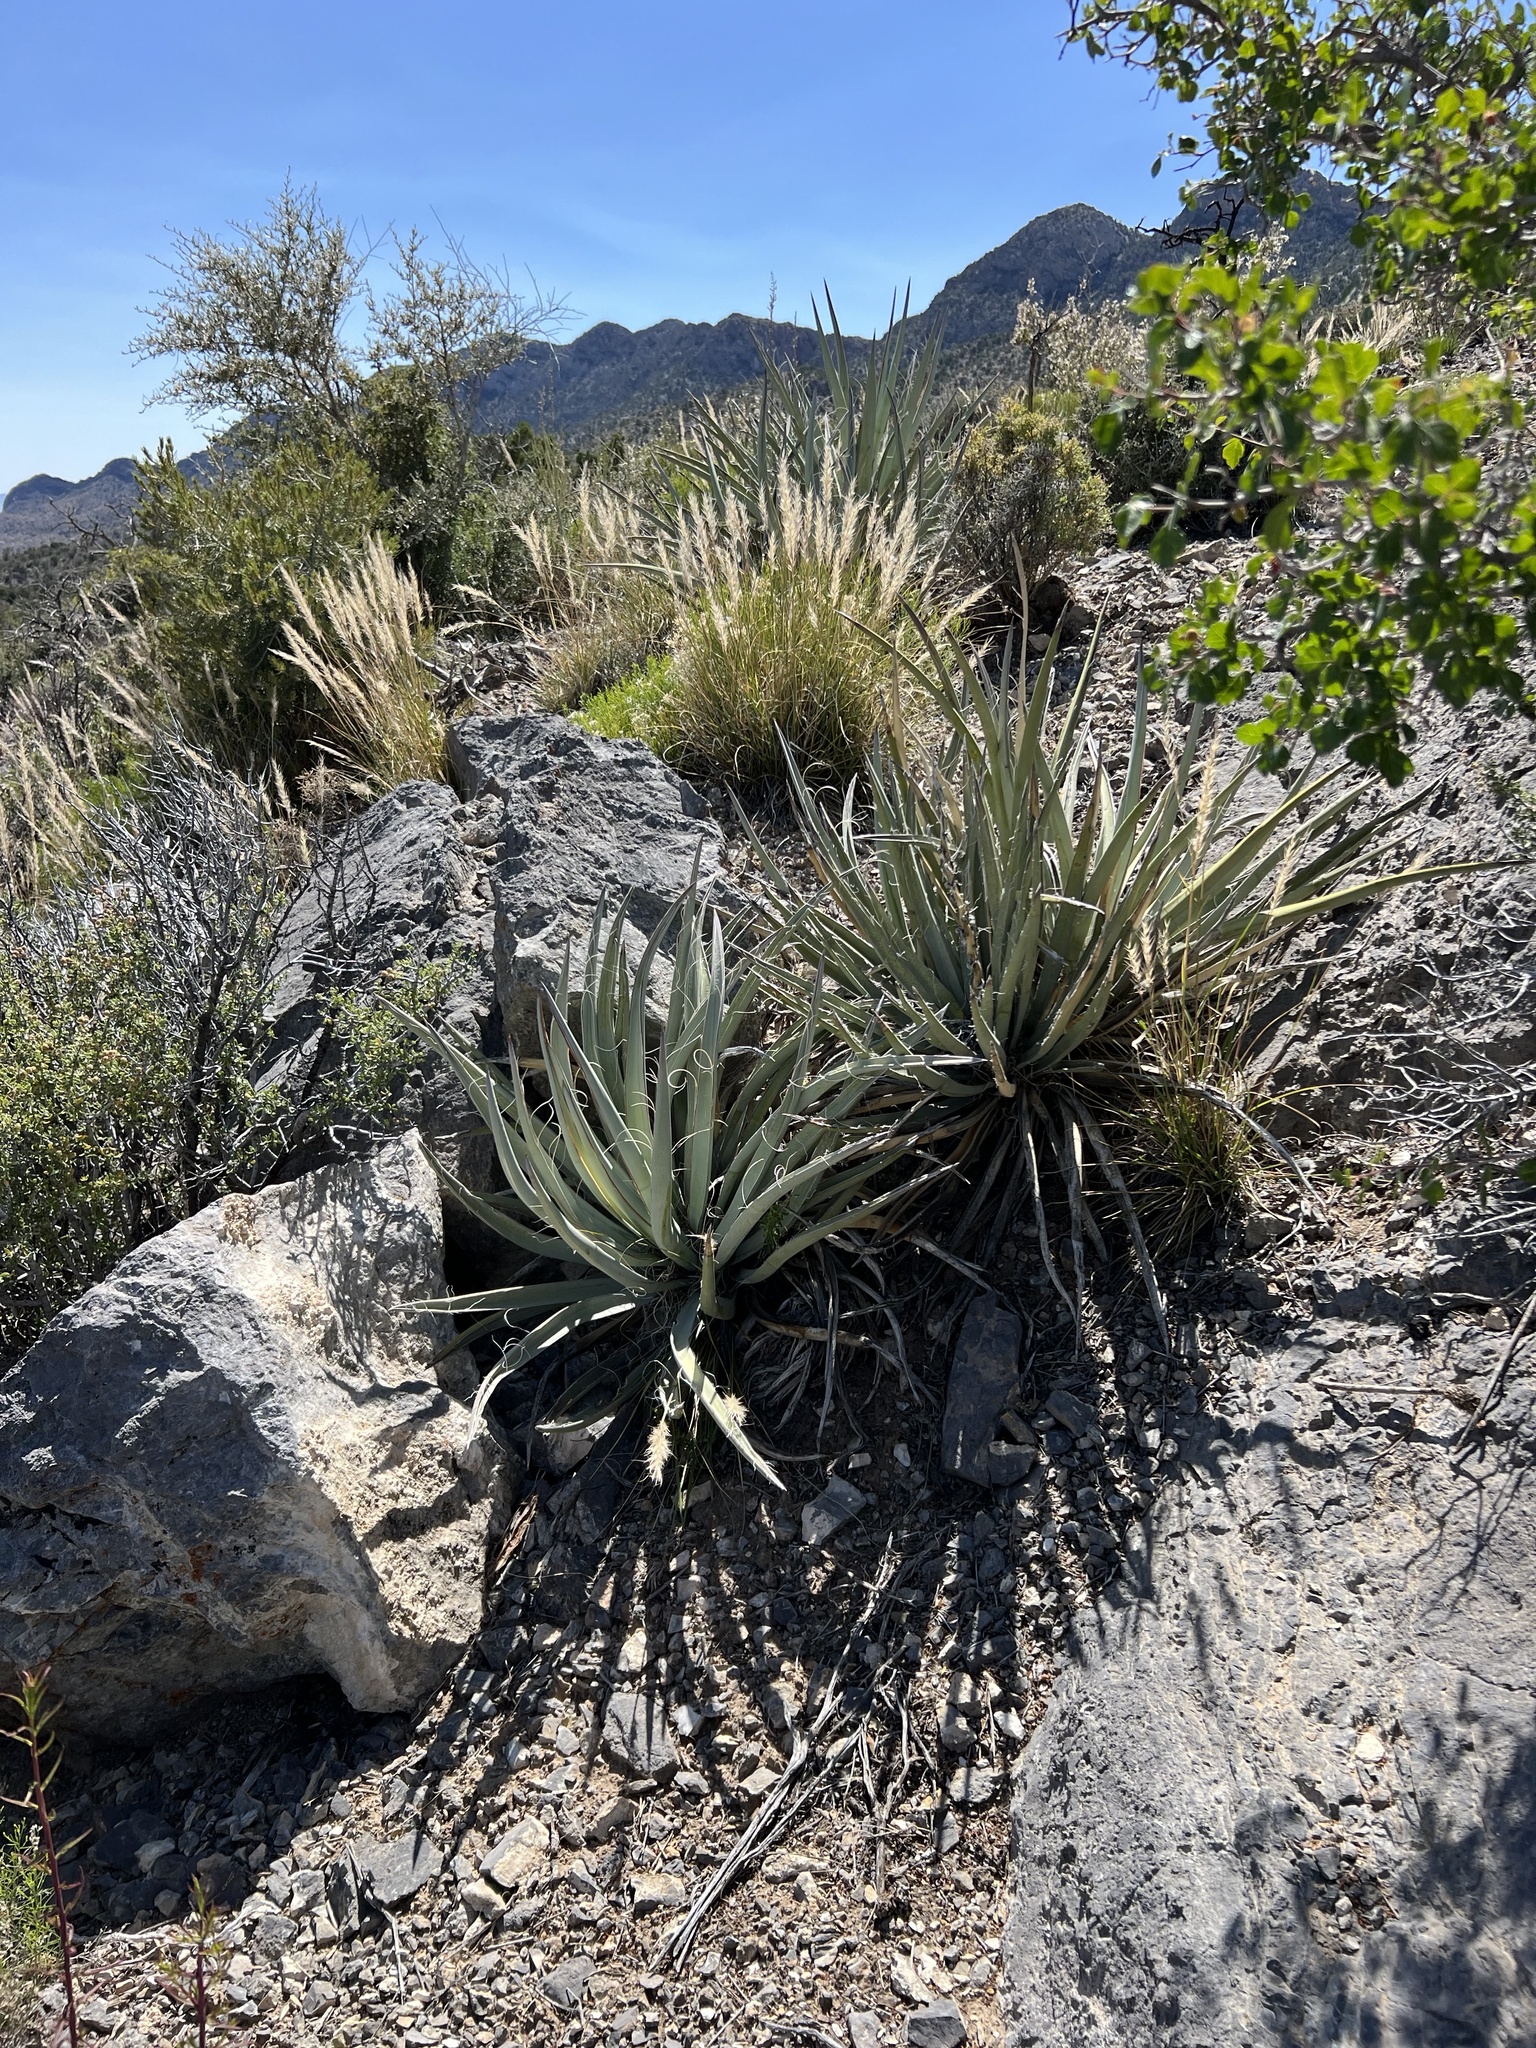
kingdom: Plantae
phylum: Tracheophyta
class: Liliopsida
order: Asparagales
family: Asparagaceae
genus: Yucca
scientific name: Yucca baccata
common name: Banana yucca
